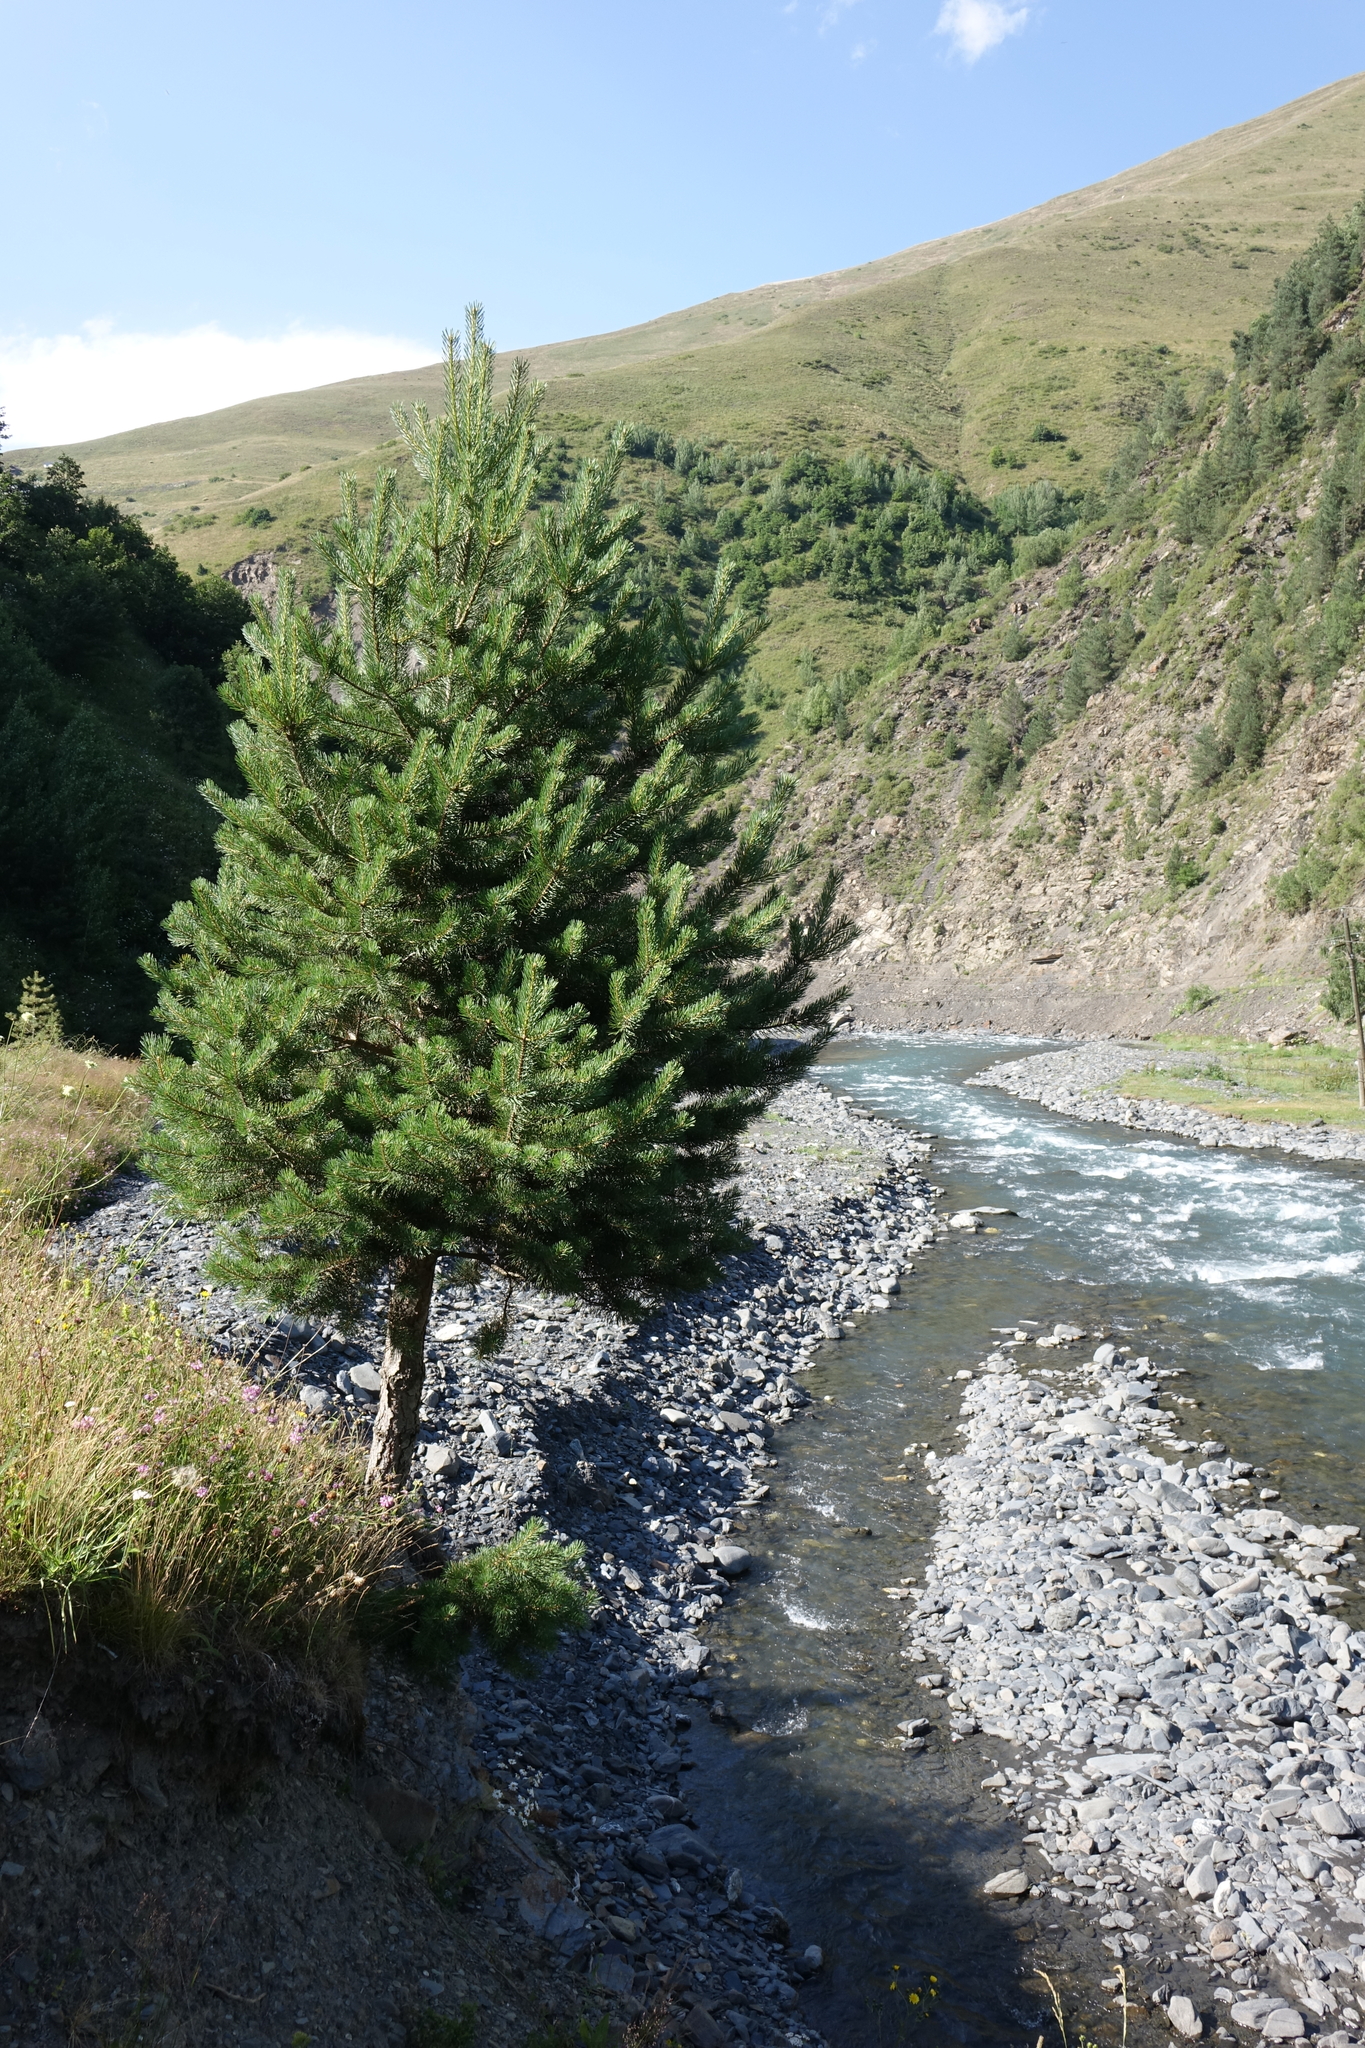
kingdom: Plantae
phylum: Tracheophyta
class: Pinopsida
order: Pinales
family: Pinaceae
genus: Pinus
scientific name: Pinus sylvestris
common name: Scots pine
